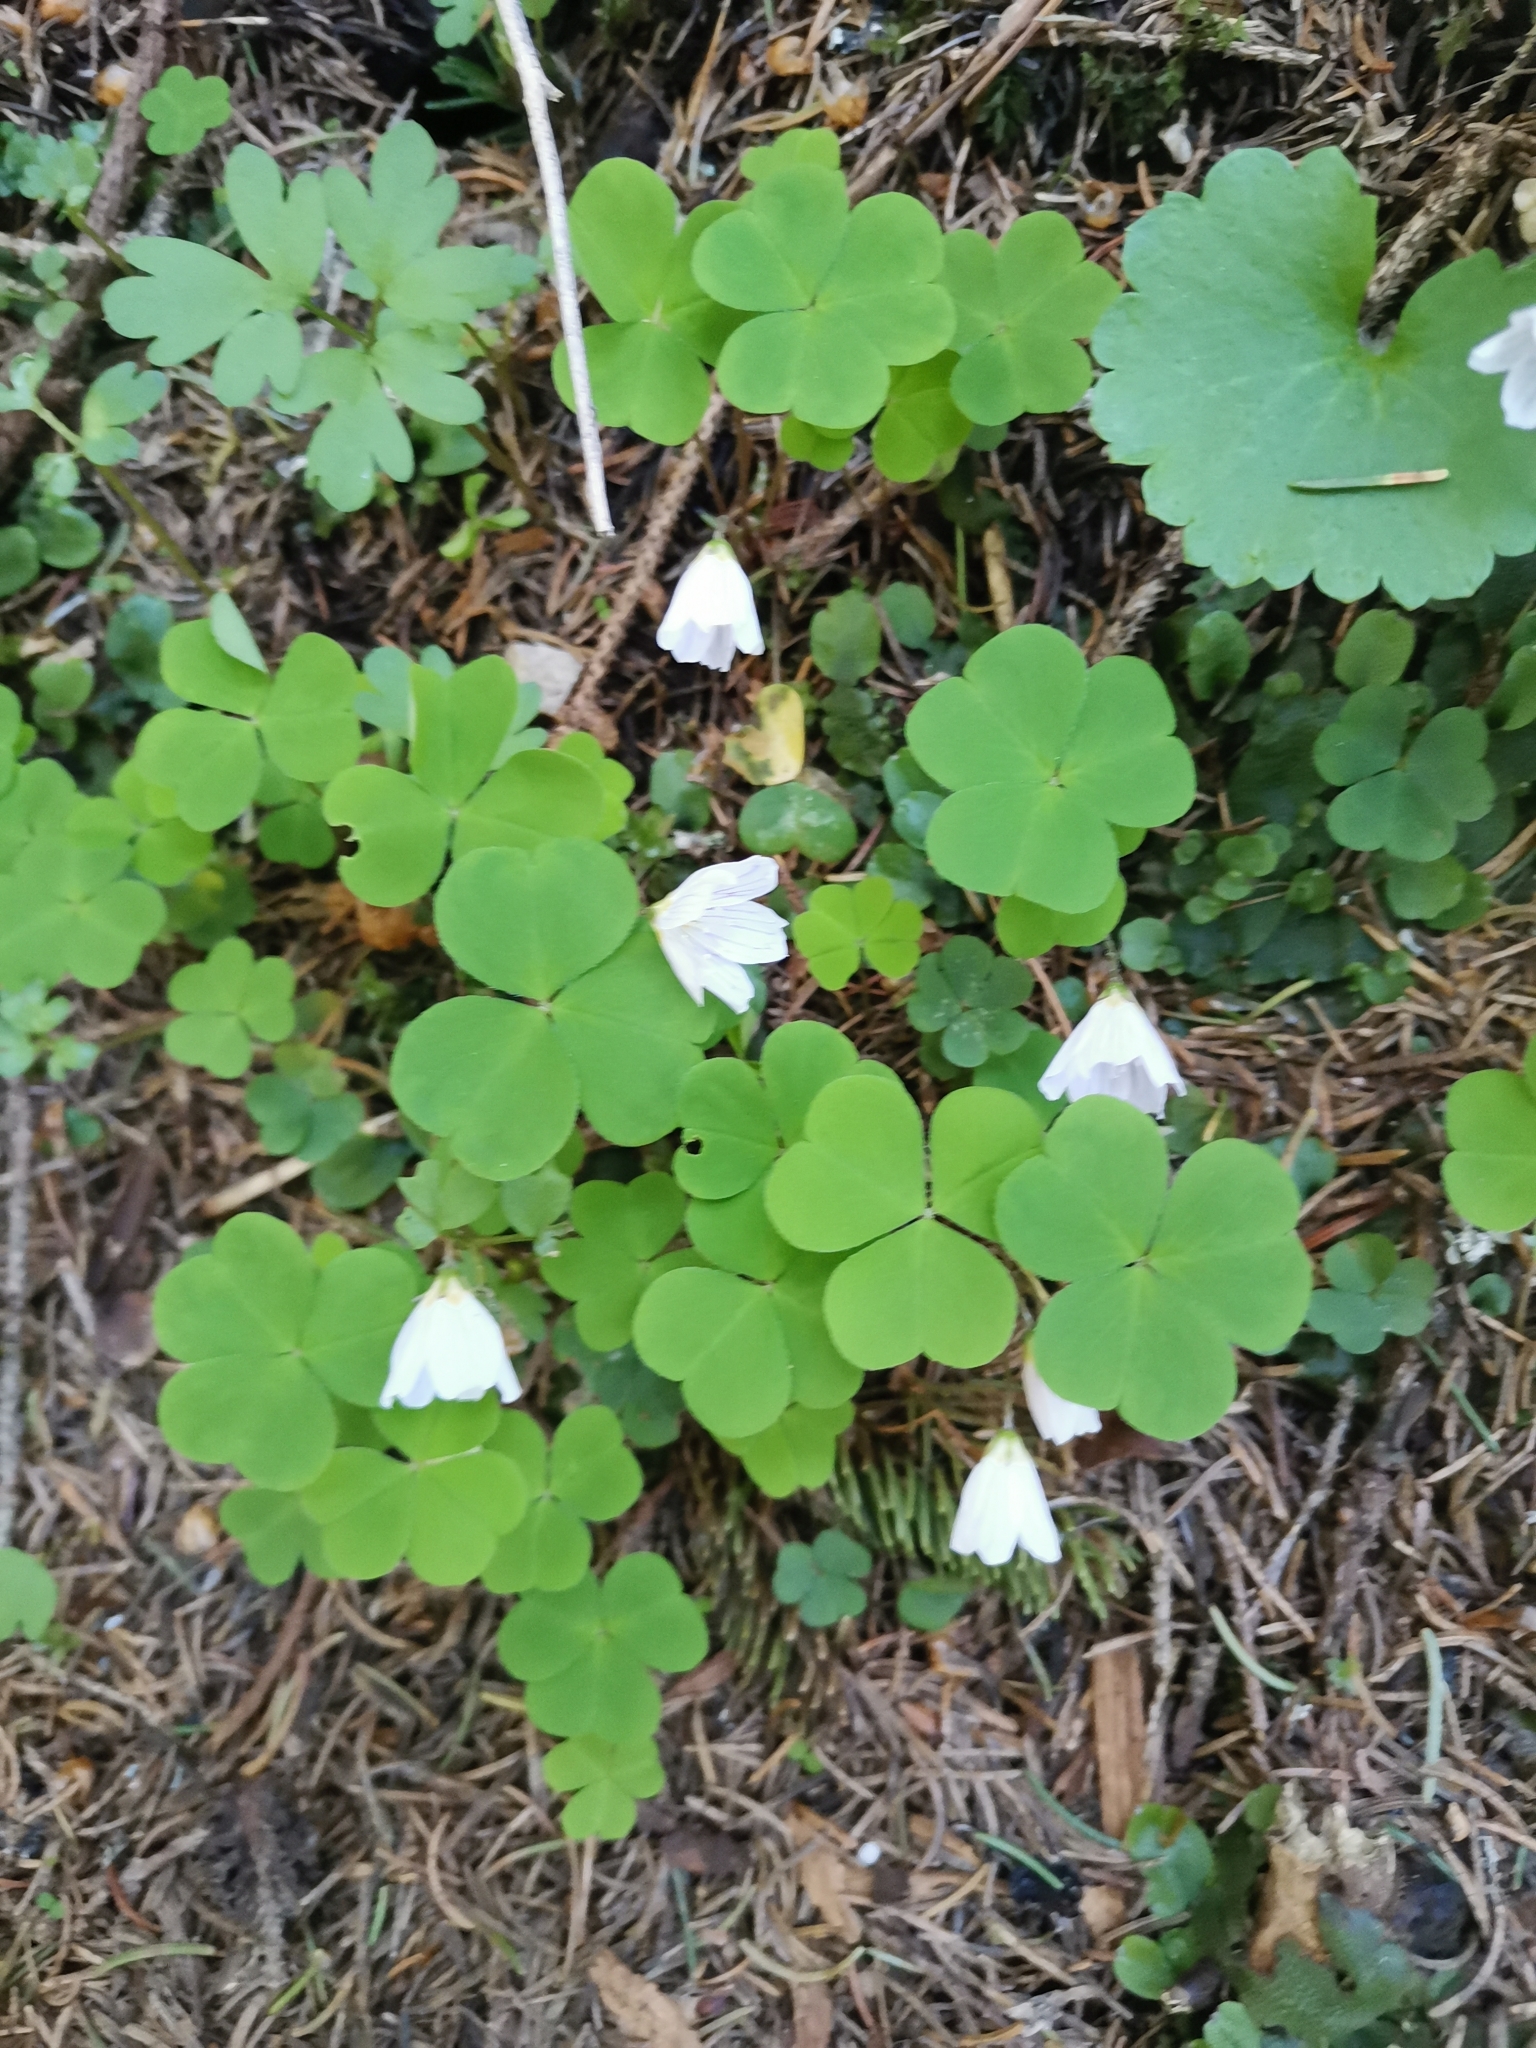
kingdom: Plantae
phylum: Tracheophyta
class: Magnoliopsida
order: Oxalidales
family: Oxalidaceae
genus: Oxalis
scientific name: Oxalis acetosella
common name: Wood-sorrel
